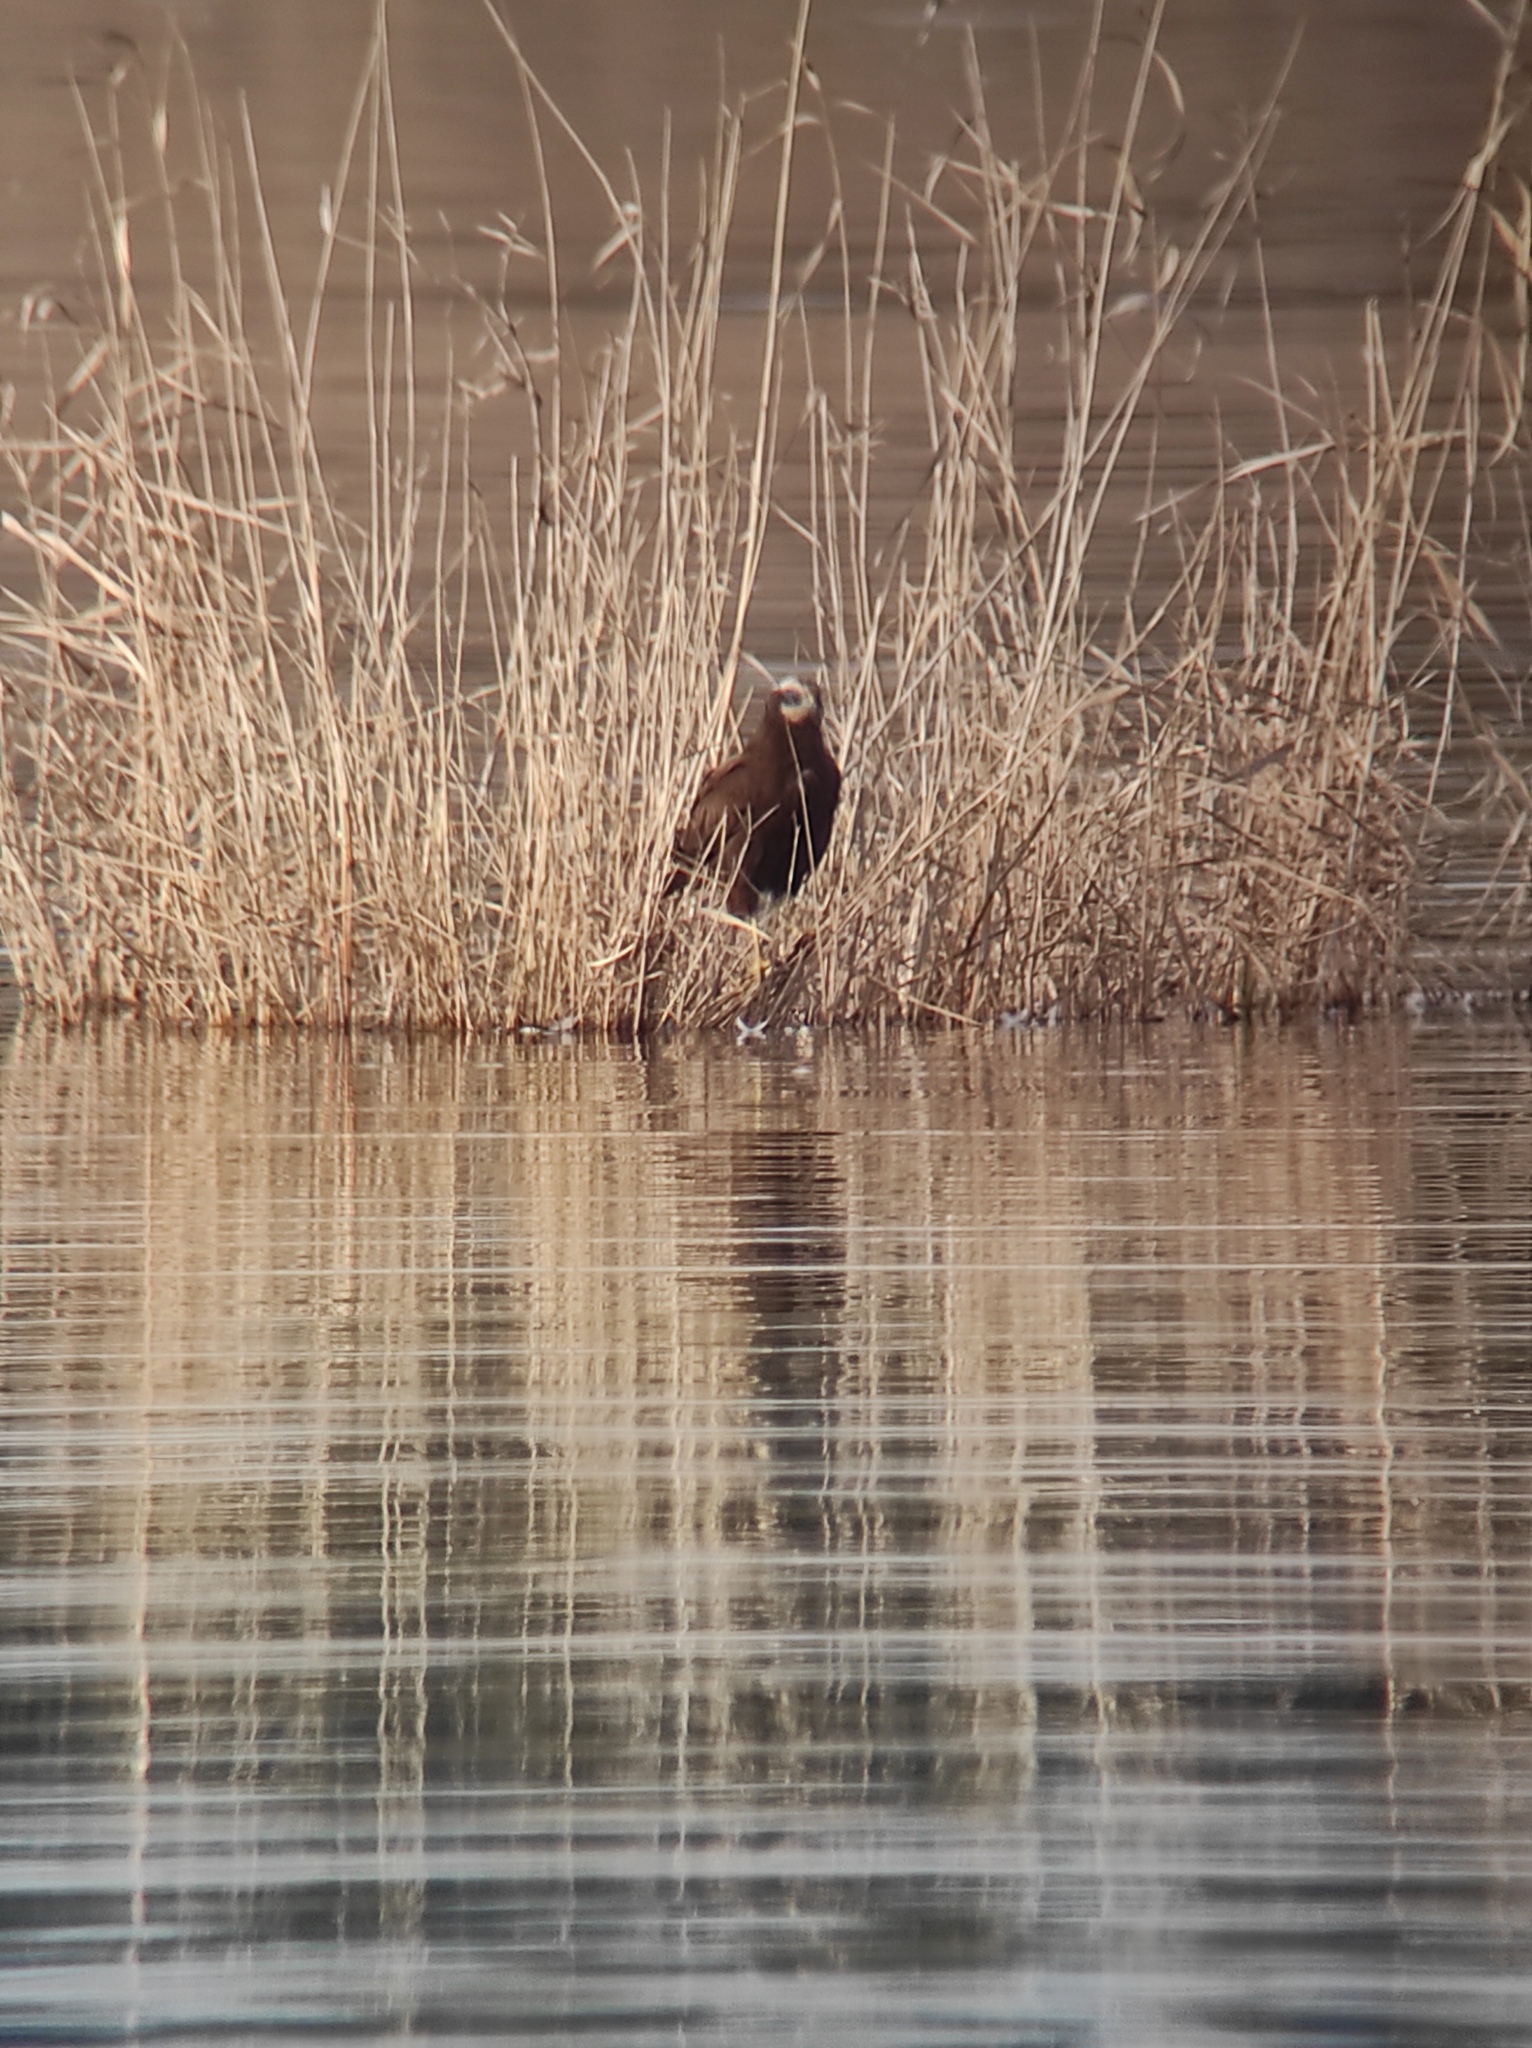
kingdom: Animalia
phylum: Chordata
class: Aves
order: Accipitriformes
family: Accipitridae
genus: Circus
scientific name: Circus aeruginosus
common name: Western marsh harrier
